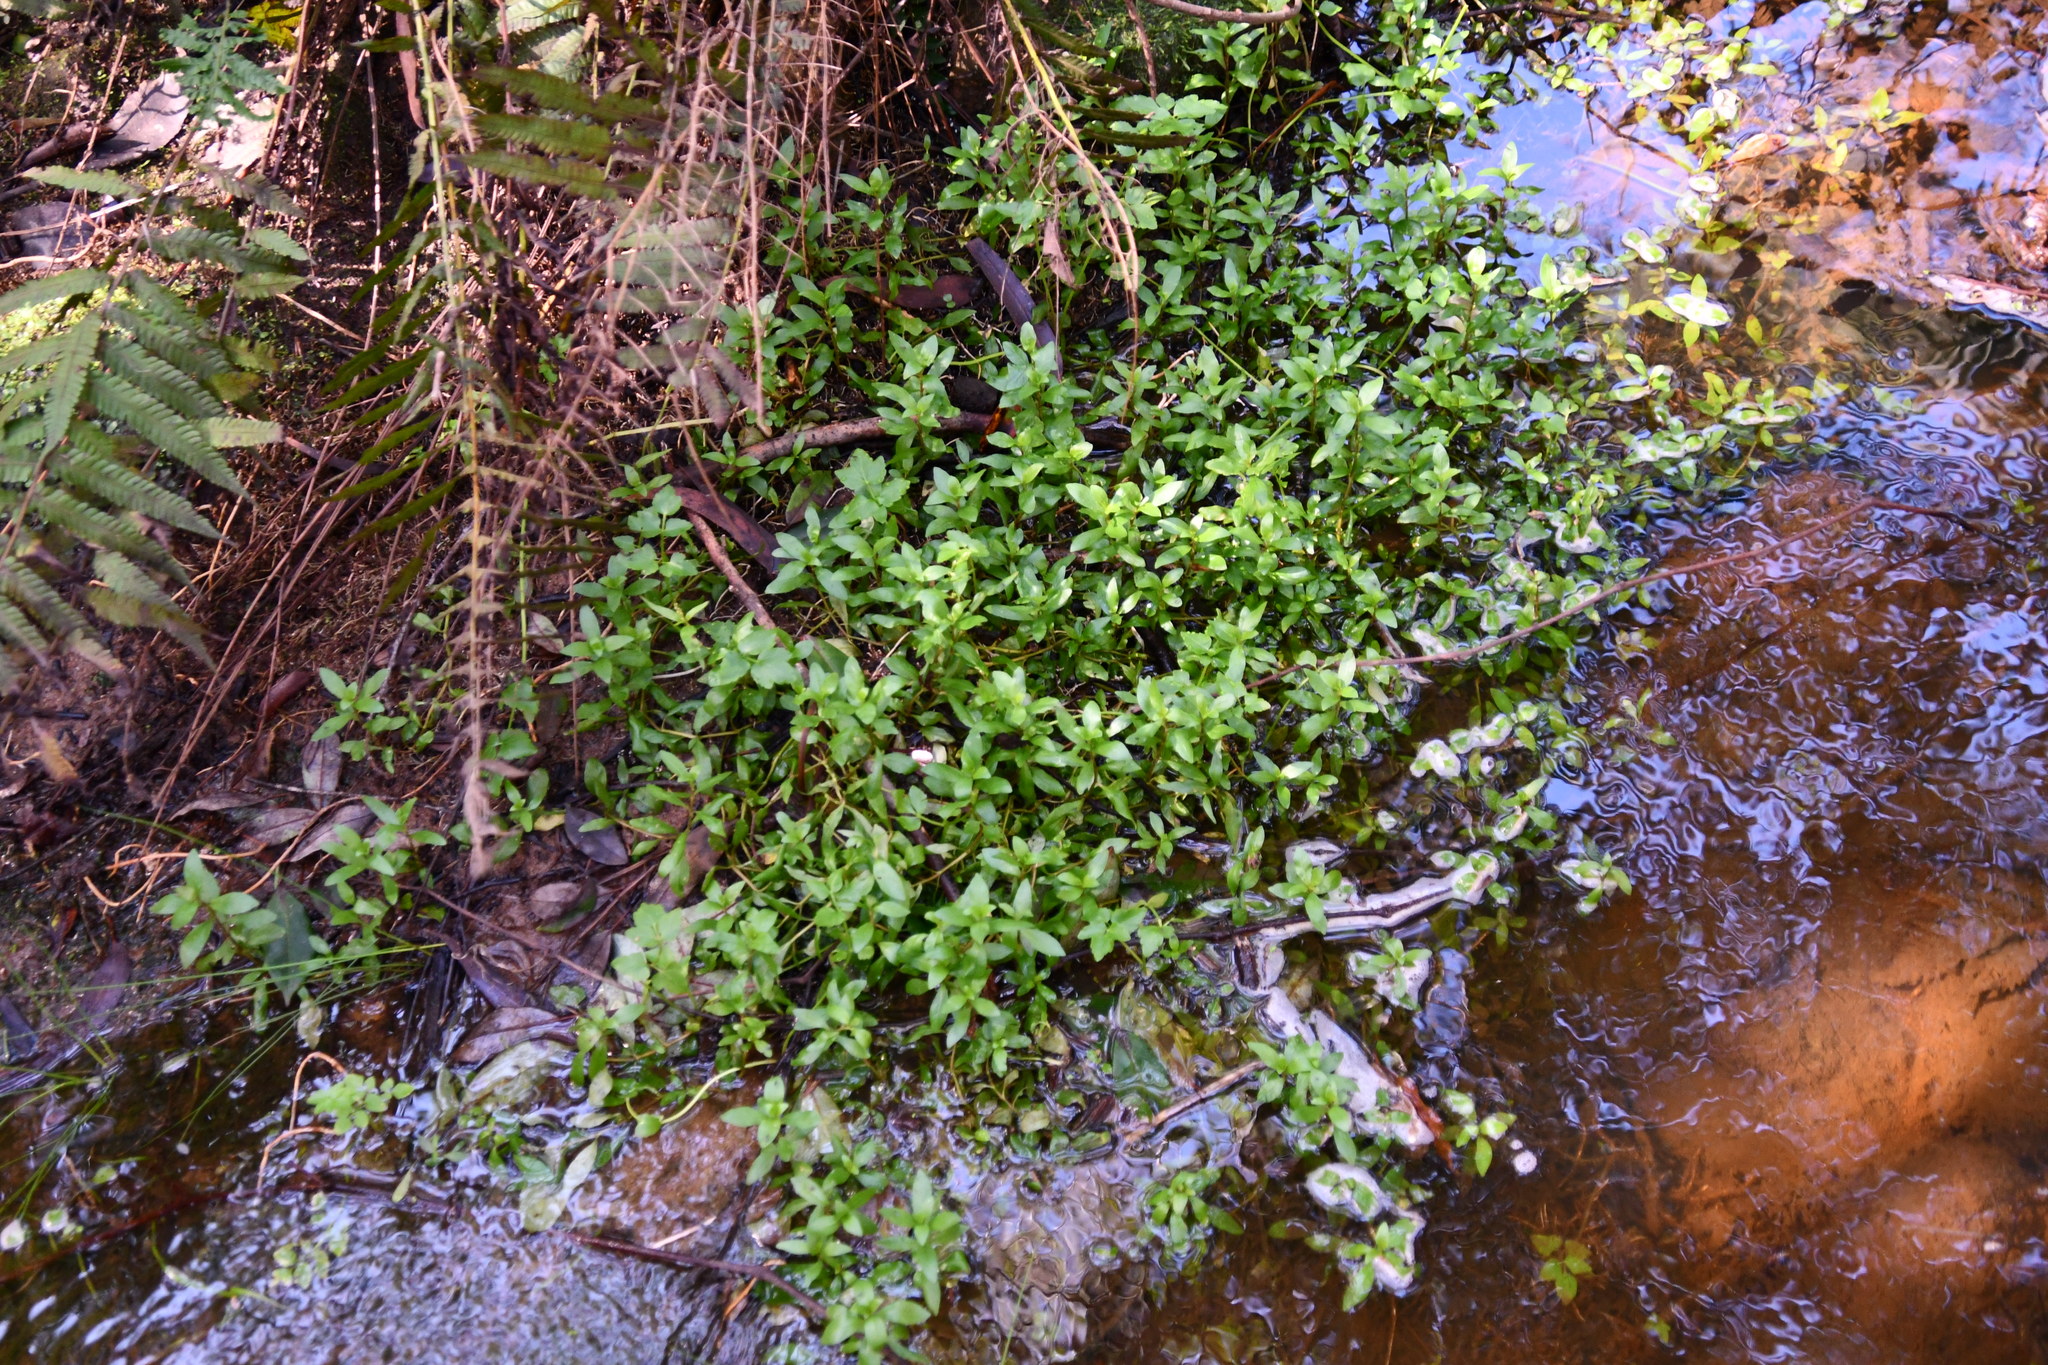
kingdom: Plantae
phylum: Tracheophyta
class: Magnoliopsida
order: Caryophyllales
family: Amaranthaceae
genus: Alternanthera
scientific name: Alternanthera philoxeroides
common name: Alligatorweed
